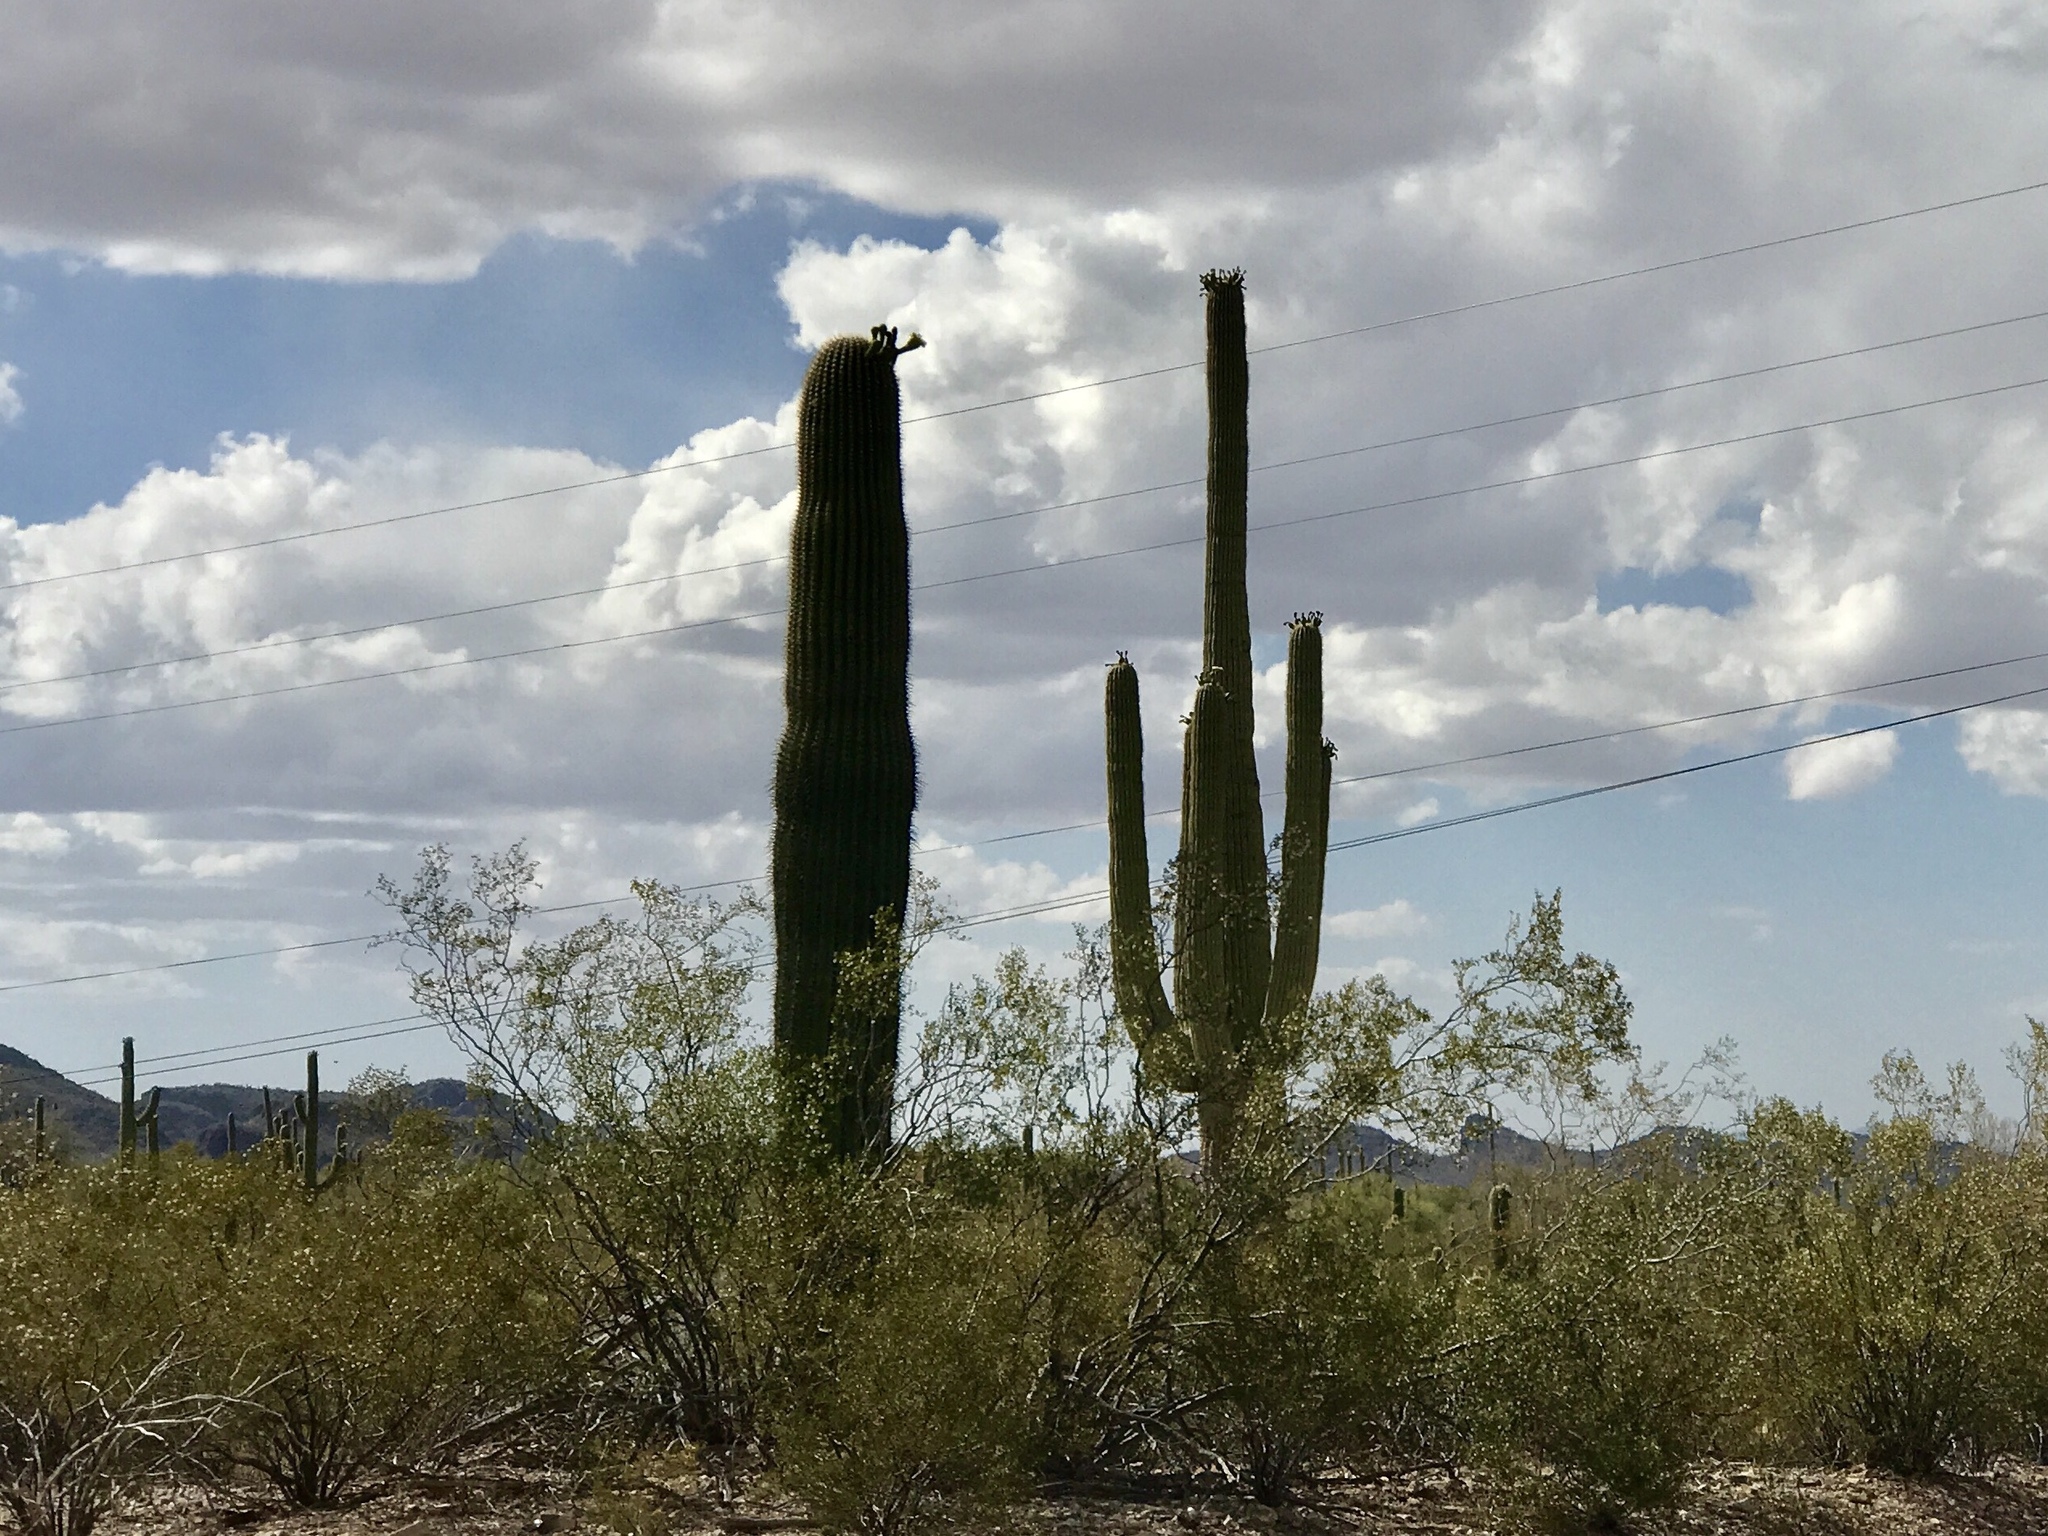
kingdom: Plantae
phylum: Tracheophyta
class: Magnoliopsida
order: Caryophyllales
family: Cactaceae
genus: Carnegiea
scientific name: Carnegiea gigantea
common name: Saguaro
